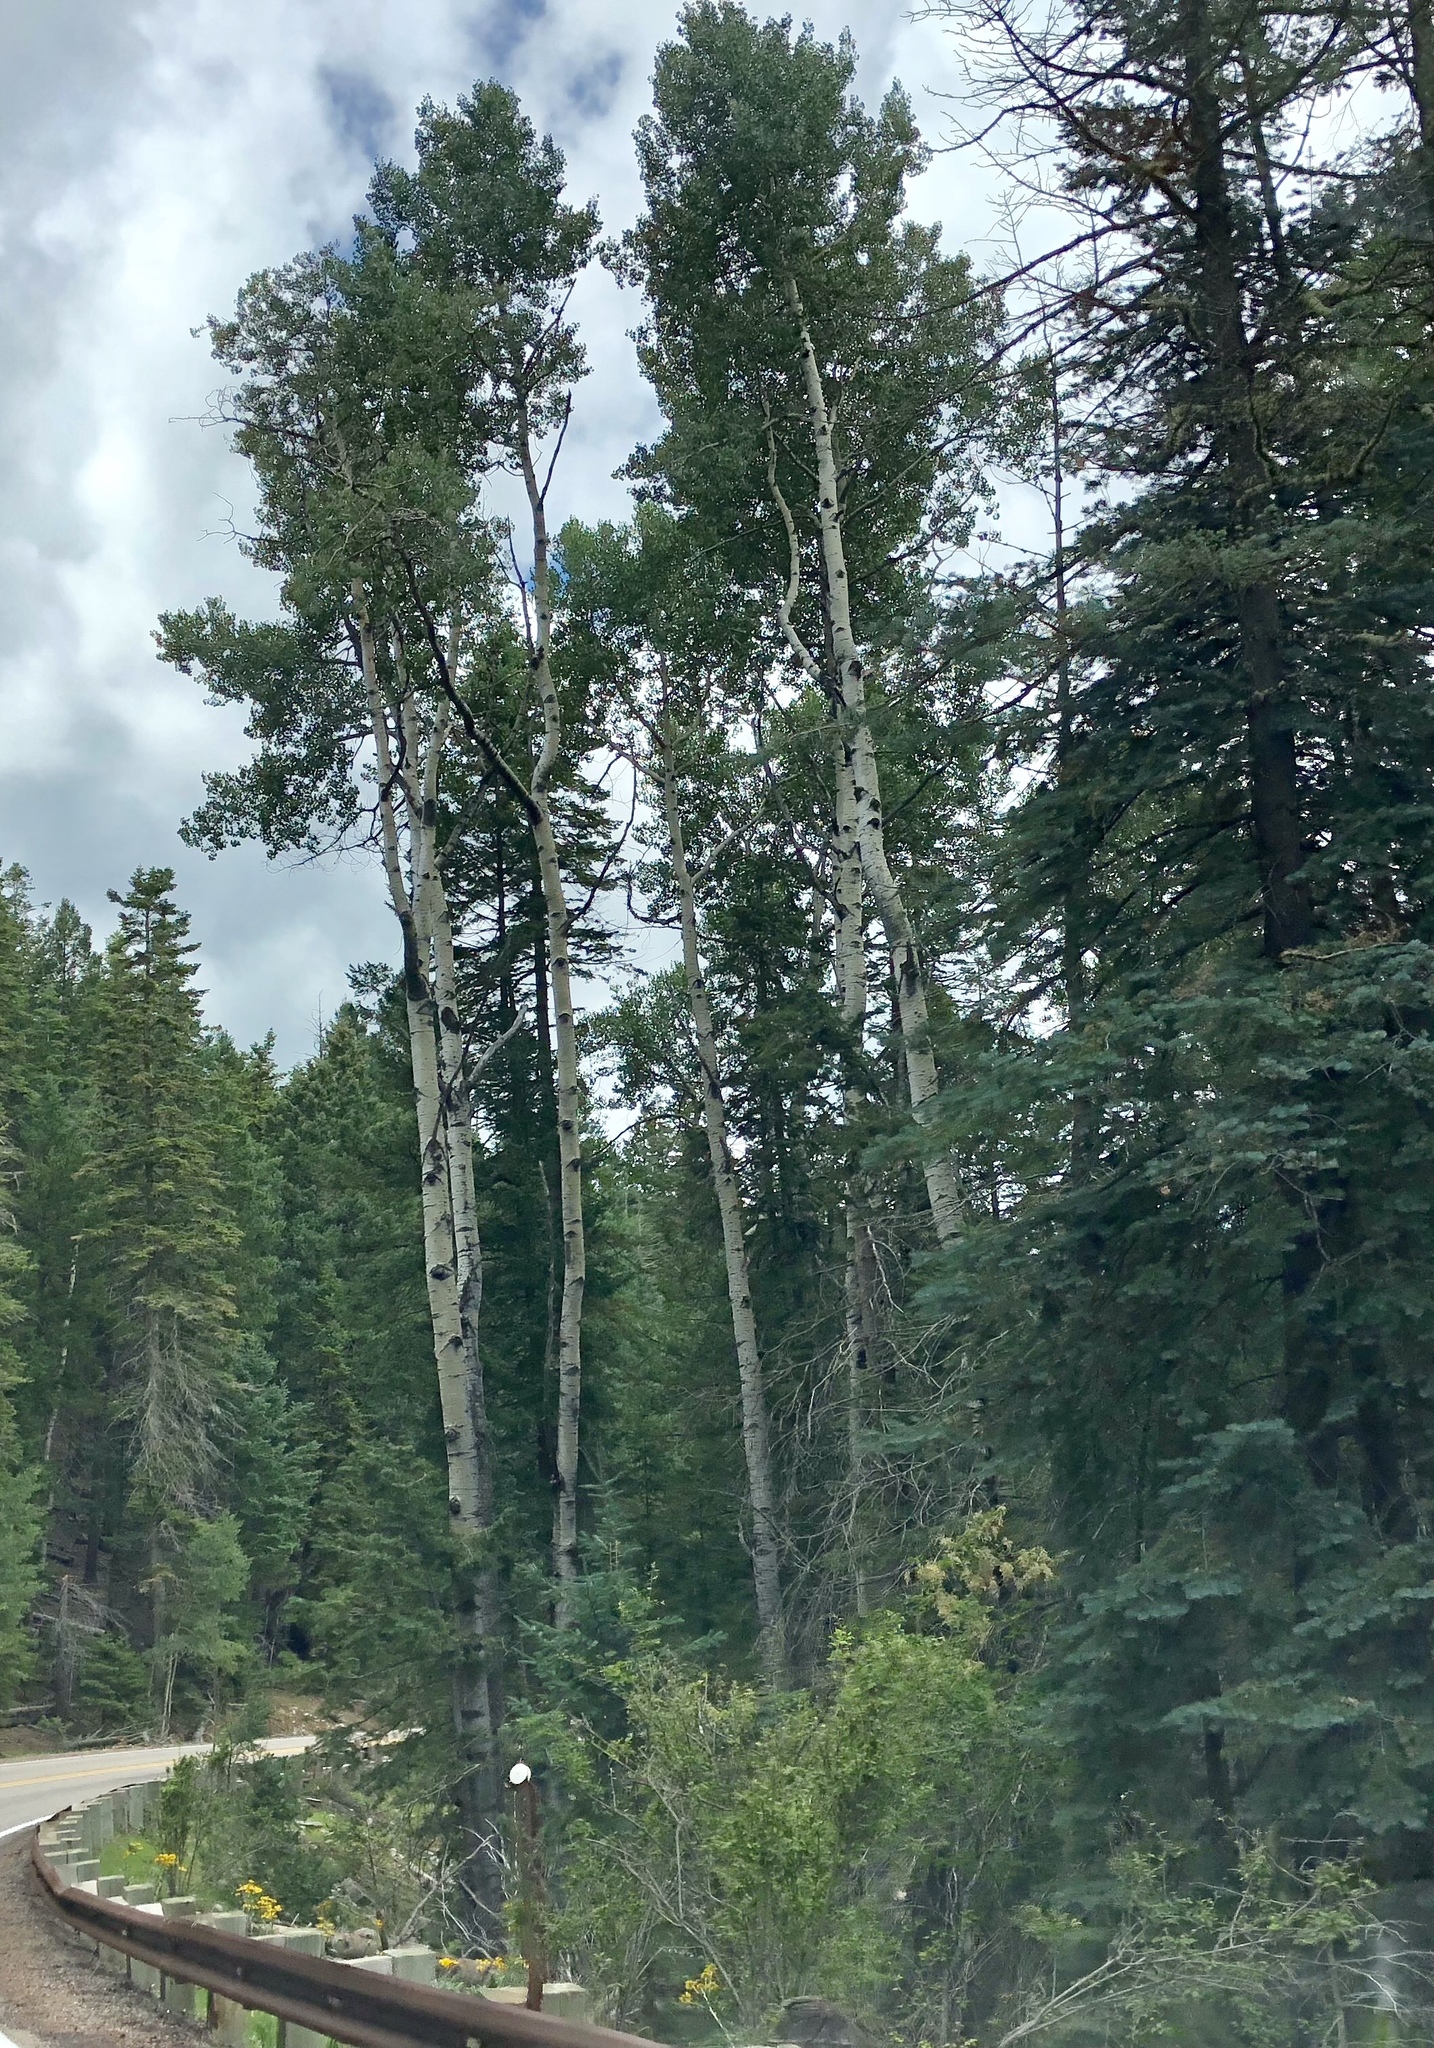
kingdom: Plantae
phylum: Tracheophyta
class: Magnoliopsida
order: Malpighiales
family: Salicaceae
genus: Populus
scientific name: Populus tremuloides
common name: Quaking aspen
